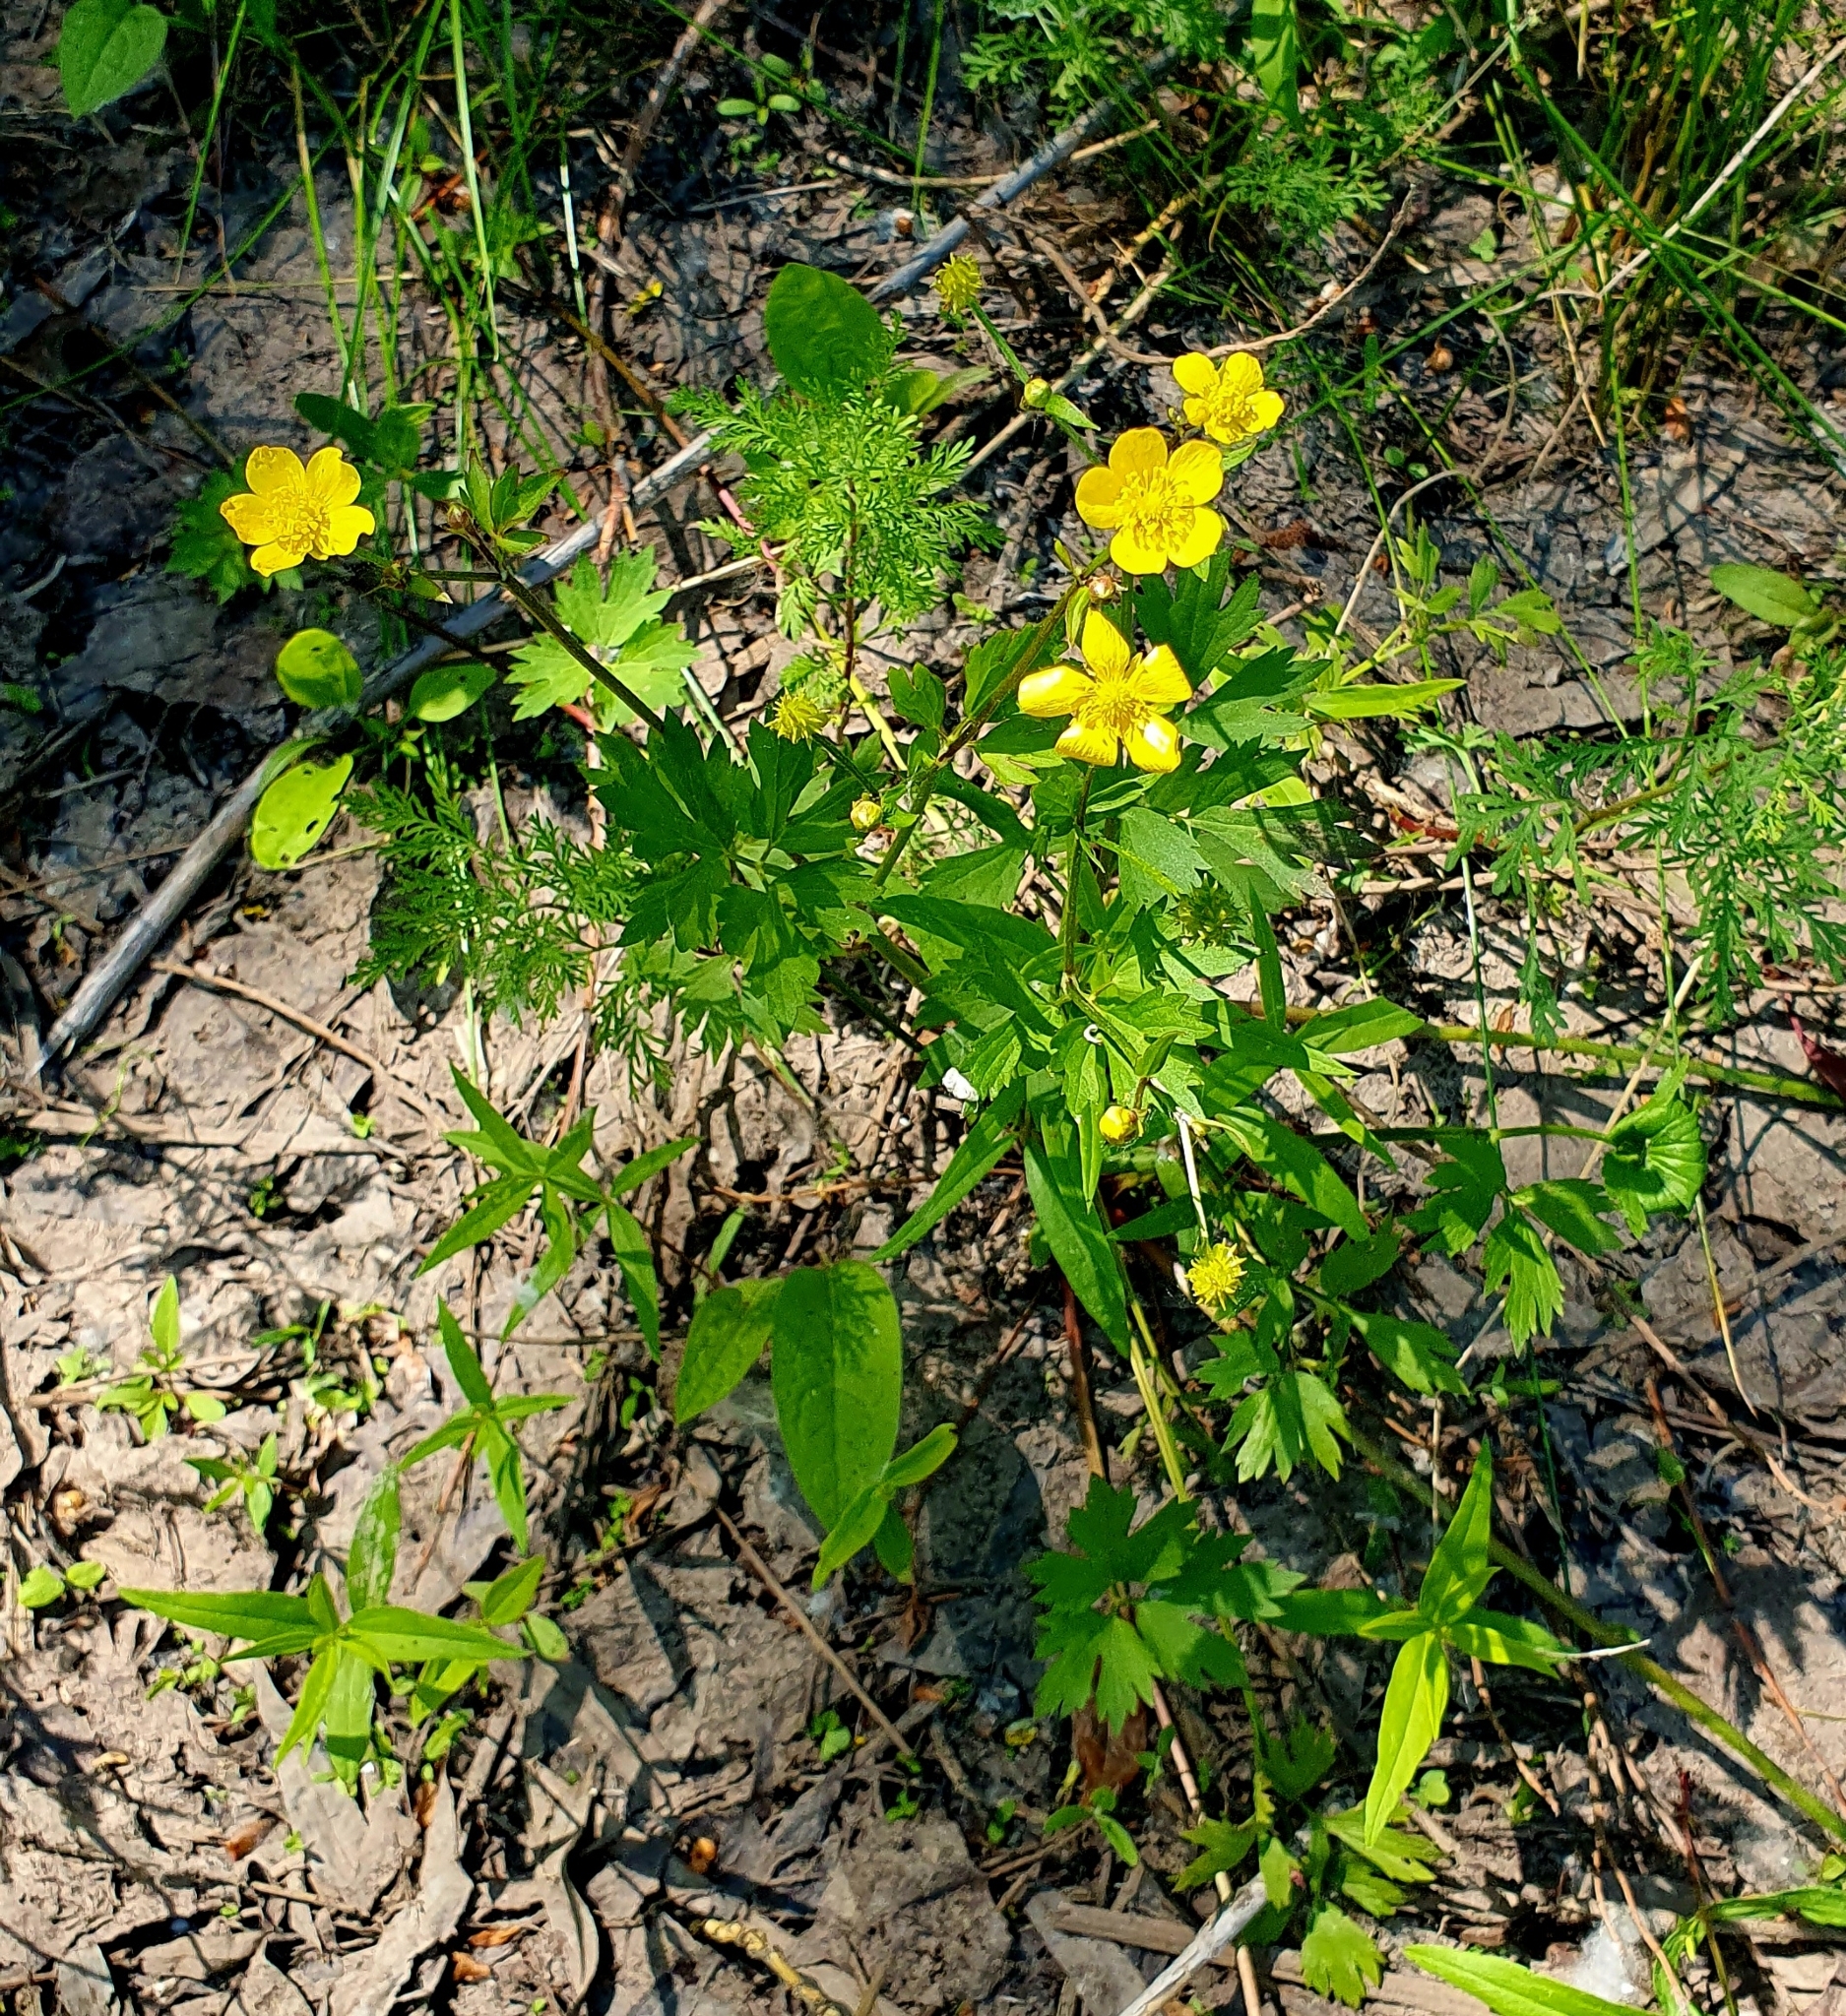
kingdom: Plantae
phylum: Tracheophyta
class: Magnoliopsida
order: Ranunculales
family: Ranunculaceae
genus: Ranunculus
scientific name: Ranunculus repens
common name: Creeping buttercup
